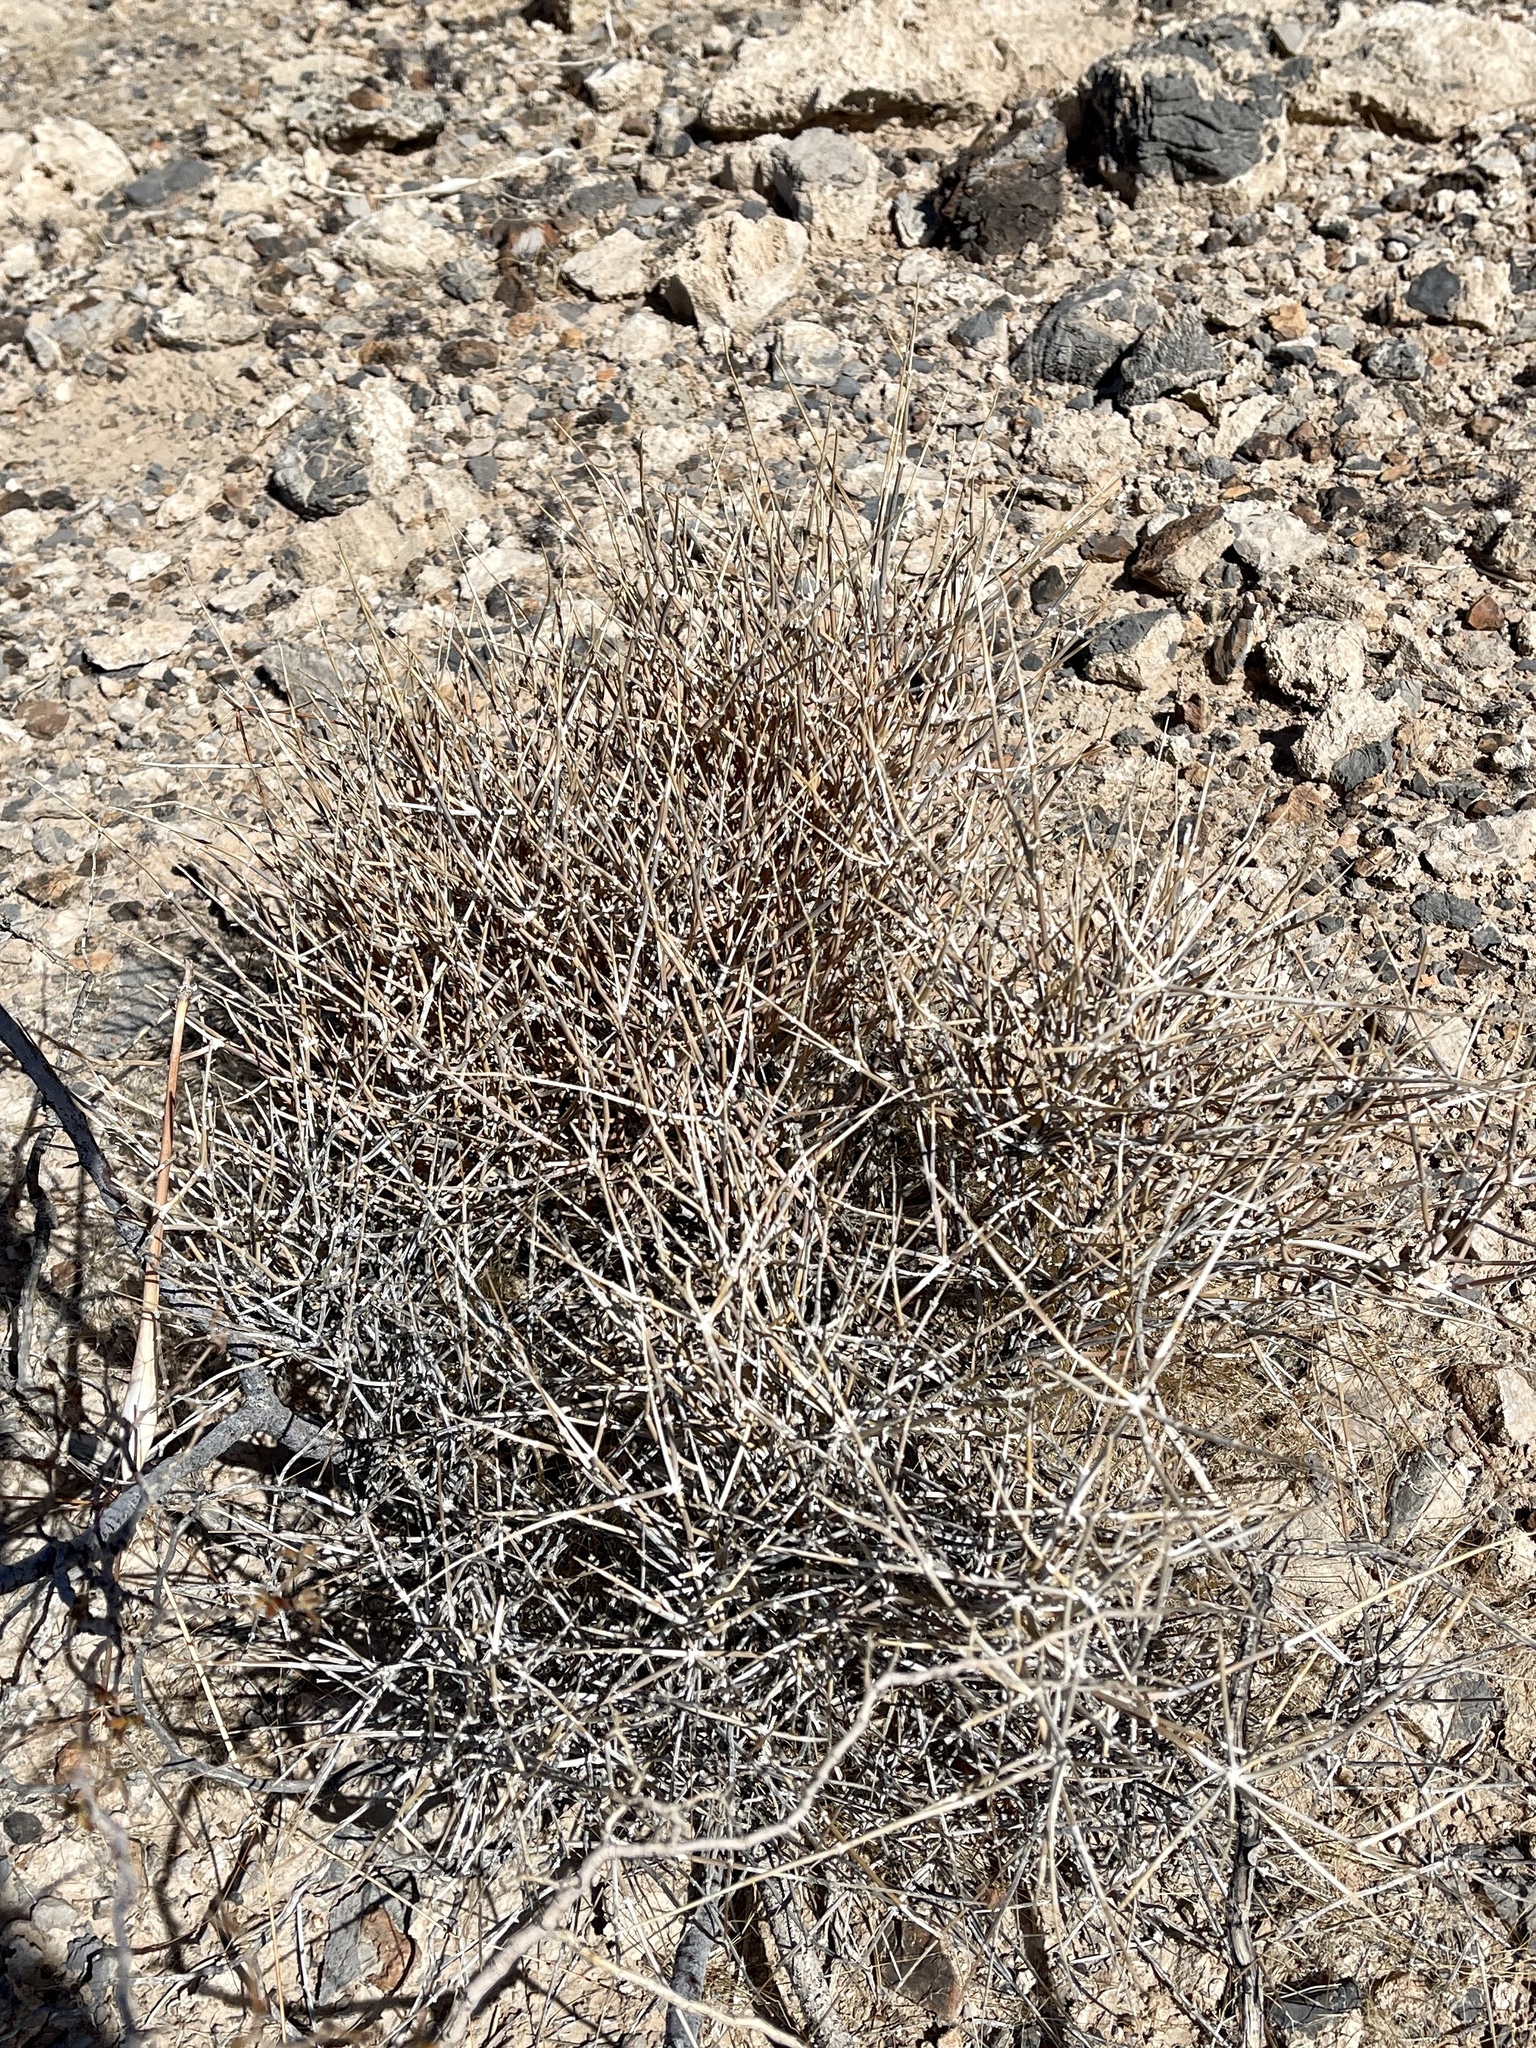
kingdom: Plantae
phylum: Tracheophyta
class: Gnetopsida
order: Ephedrales
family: Ephedraceae
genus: Ephedra
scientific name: Ephedra nevadensis
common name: Gray ephedra
